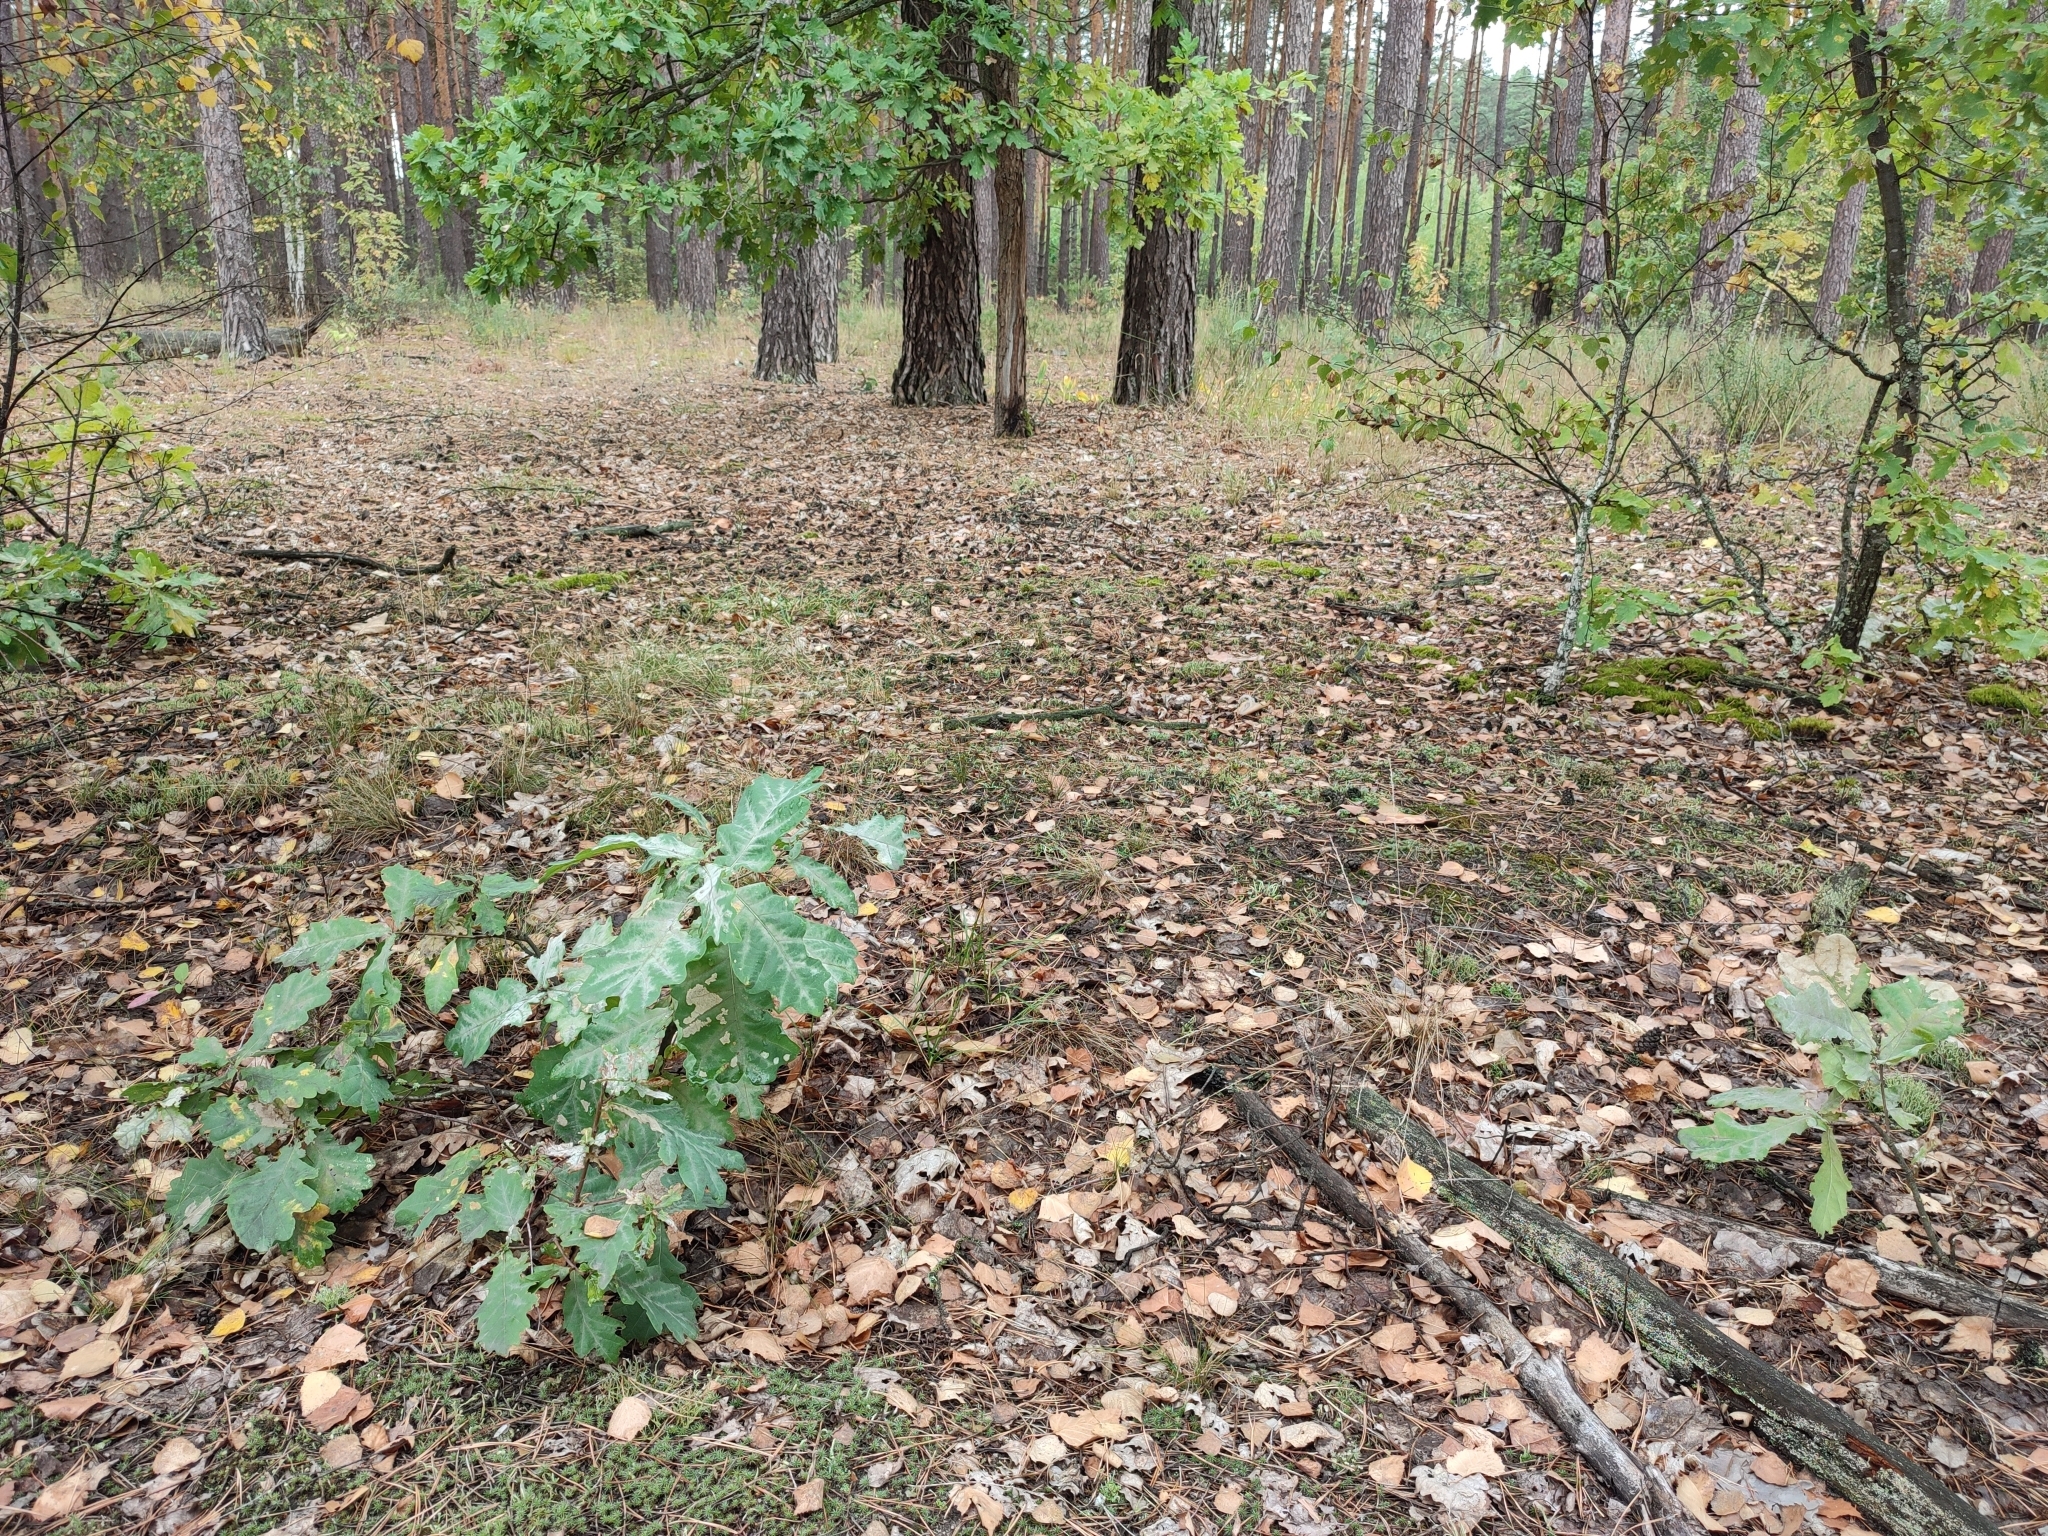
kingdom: Plantae
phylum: Tracheophyta
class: Magnoliopsida
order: Fagales
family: Fagaceae
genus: Quercus
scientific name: Quercus robur
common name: Pedunculate oak
